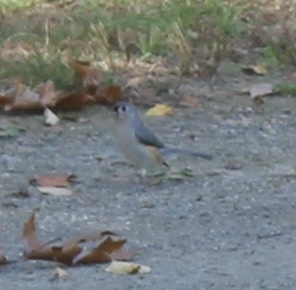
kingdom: Animalia
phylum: Chordata
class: Aves
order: Passeriformes
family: Paridae
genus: Baeolophus
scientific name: Baeolophus bicolor
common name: Tufted titmouse
